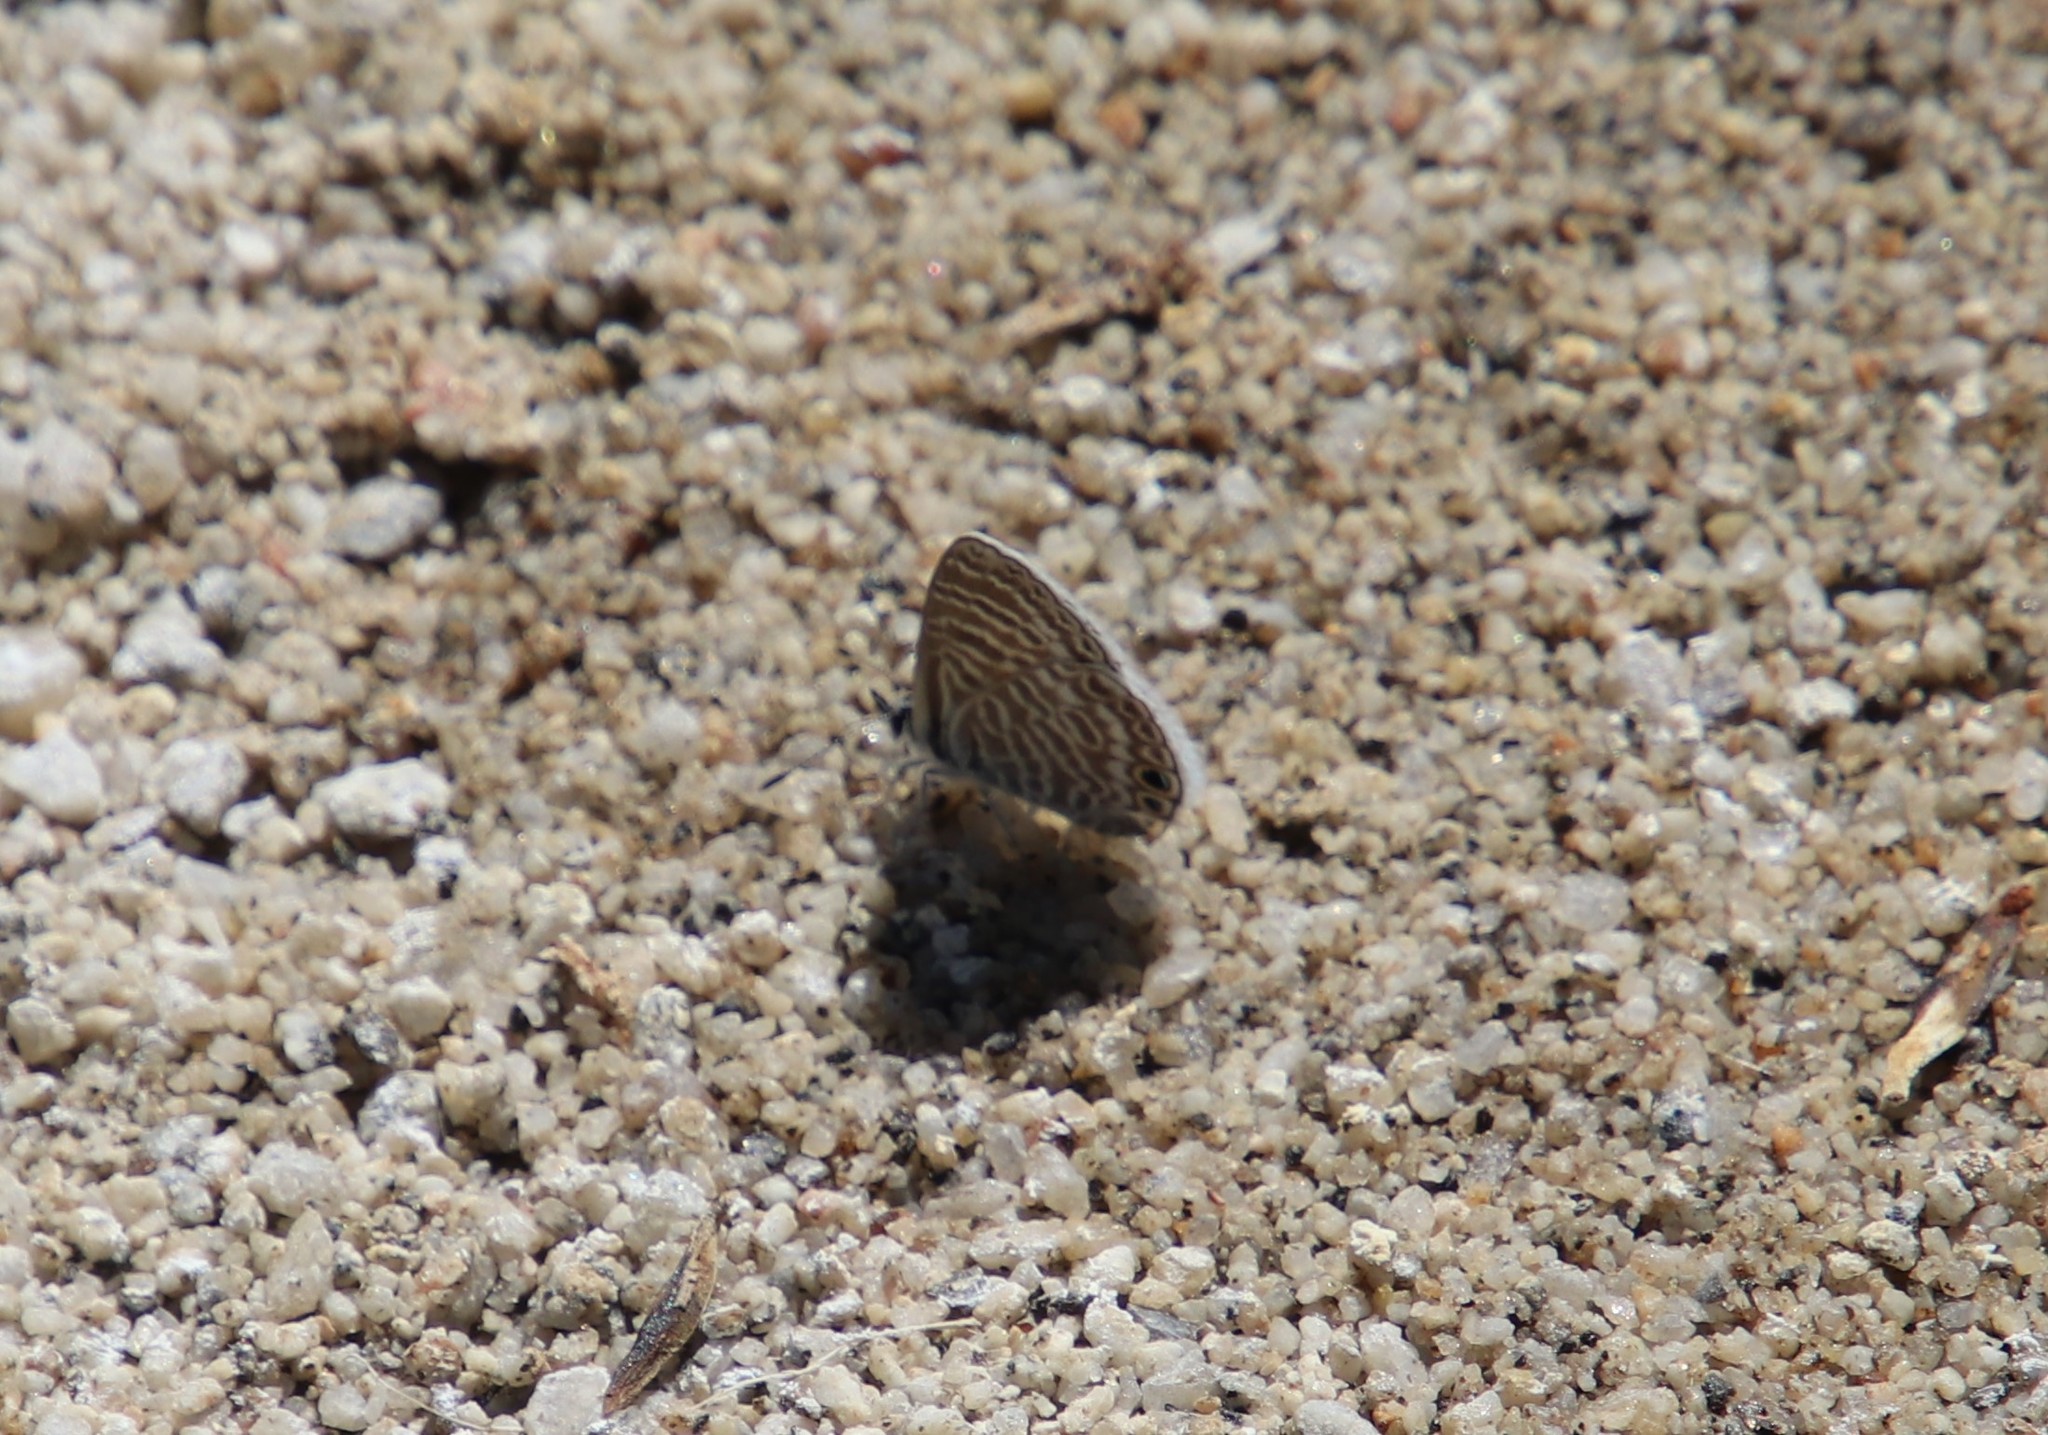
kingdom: Animalia
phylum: Arthropoda
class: Insecta
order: Lepidoptera
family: Lycaenidae
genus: Leptotes
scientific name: Leptotes marina
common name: Marine blue
